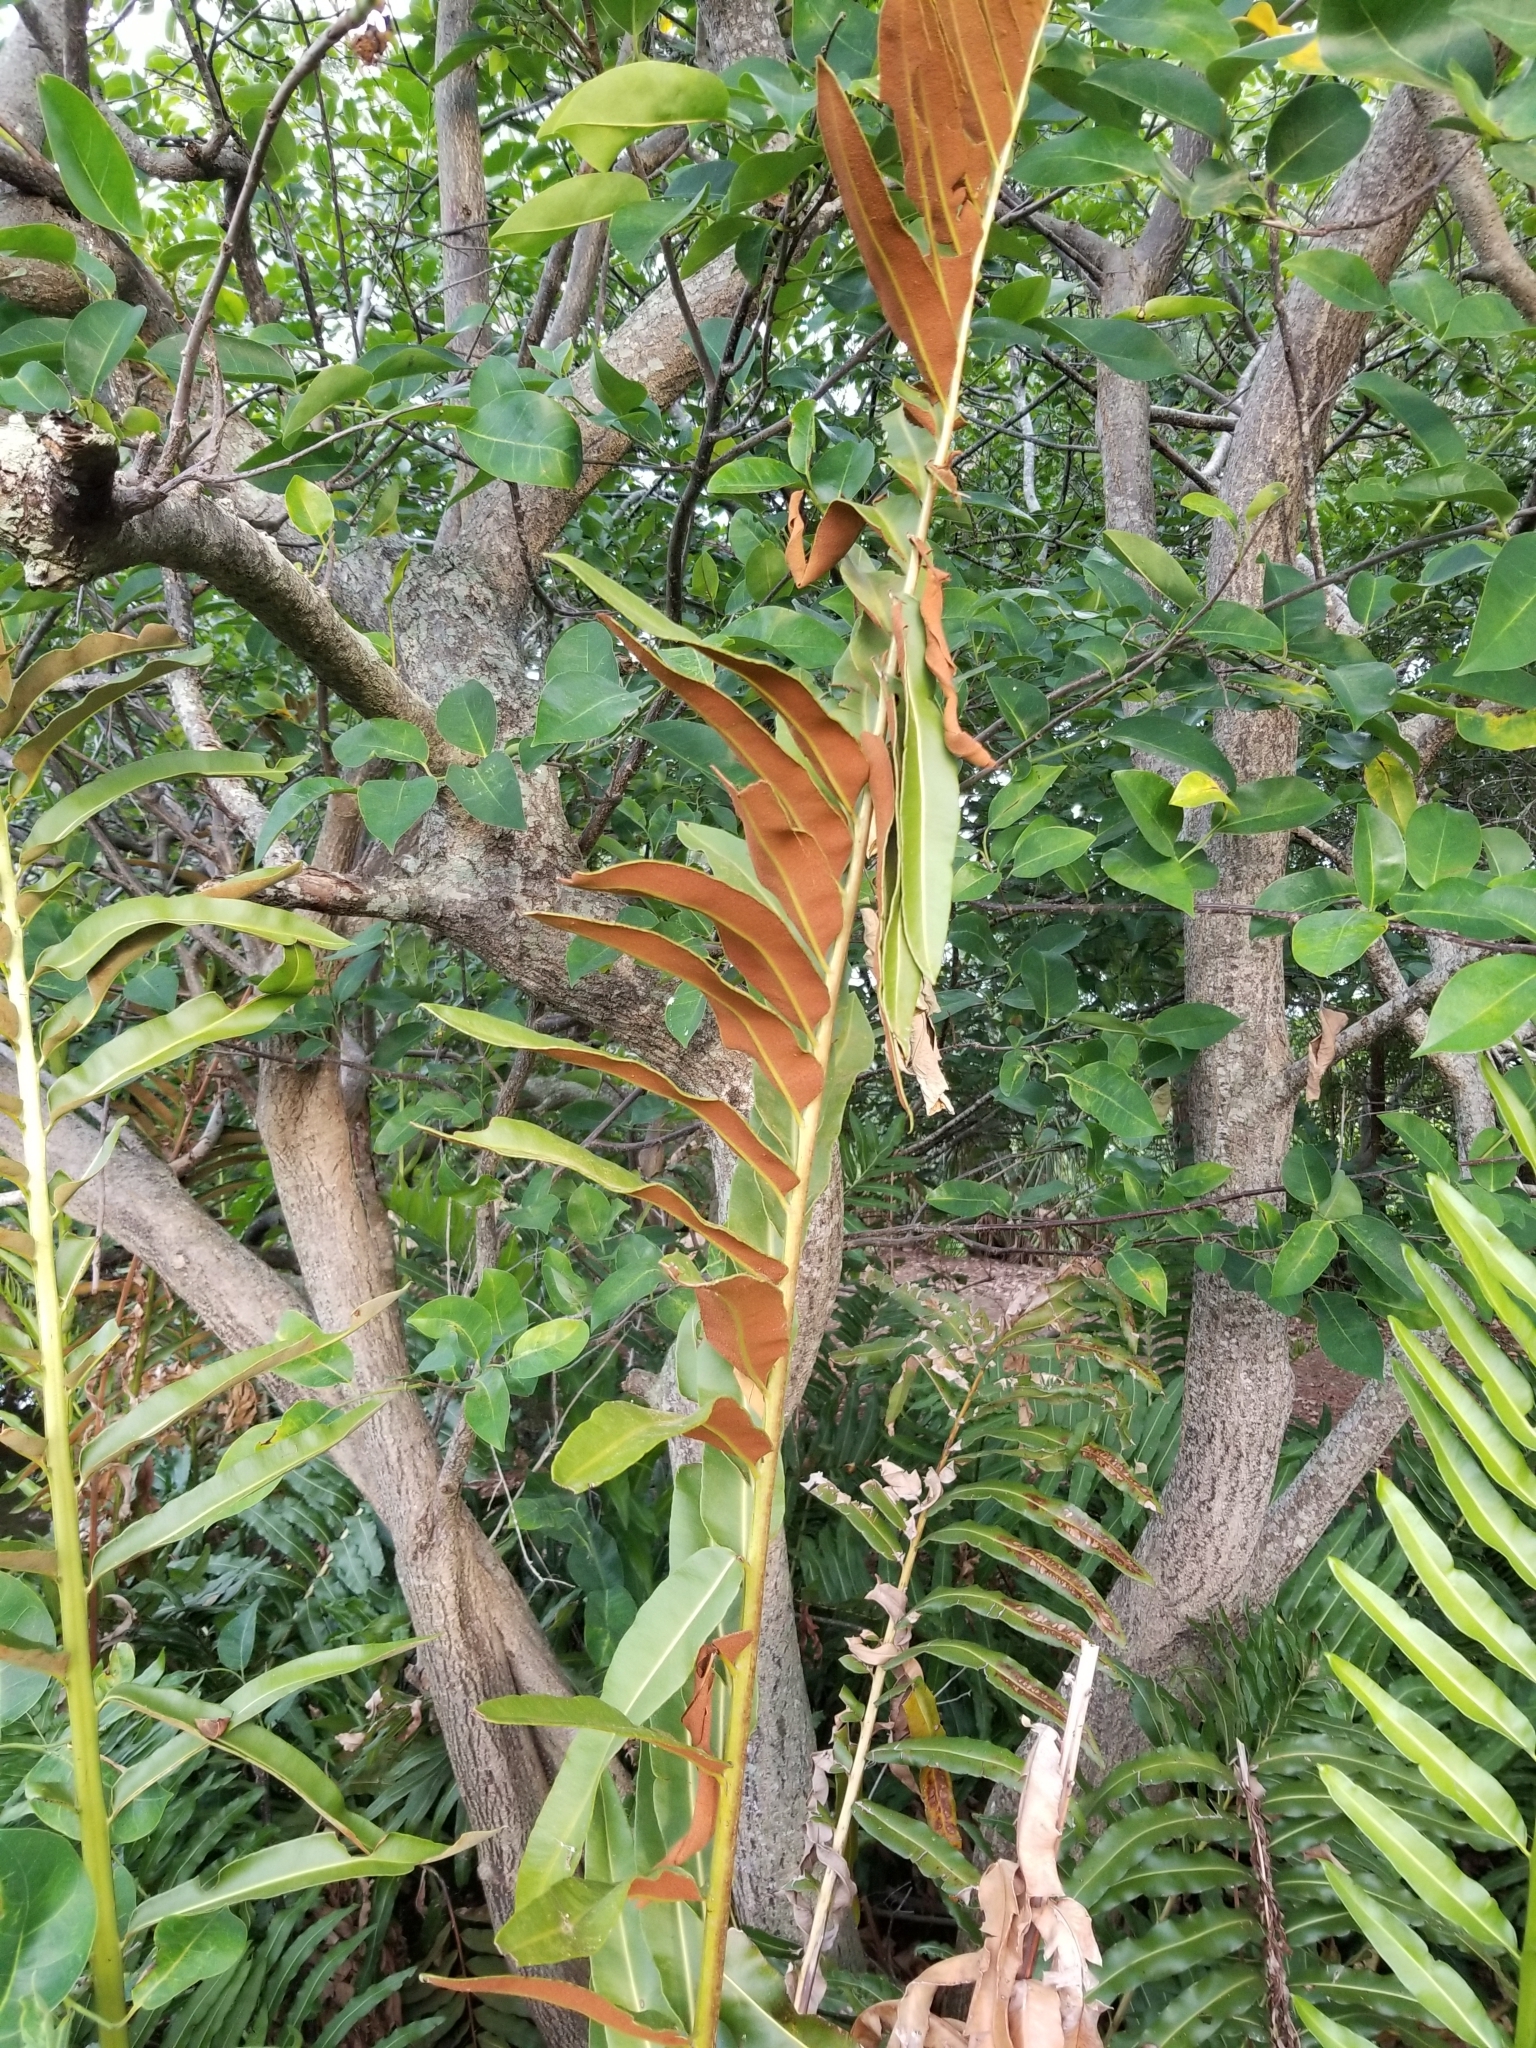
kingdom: Plantae
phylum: Tracheophyta
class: Polypodiopsida
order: Polypodiales
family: Pteridaceae
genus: Acrostichum
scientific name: Acrostichum danaeifolium
